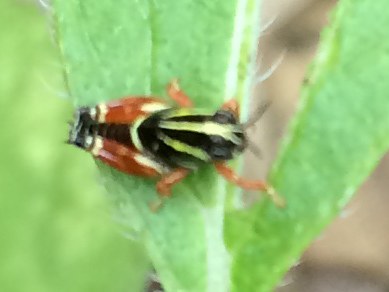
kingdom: Animalia
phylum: Arthropoda
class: Insecta
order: Orthoptera
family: Acrididae
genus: Aidemona
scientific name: Aidemona azteca
